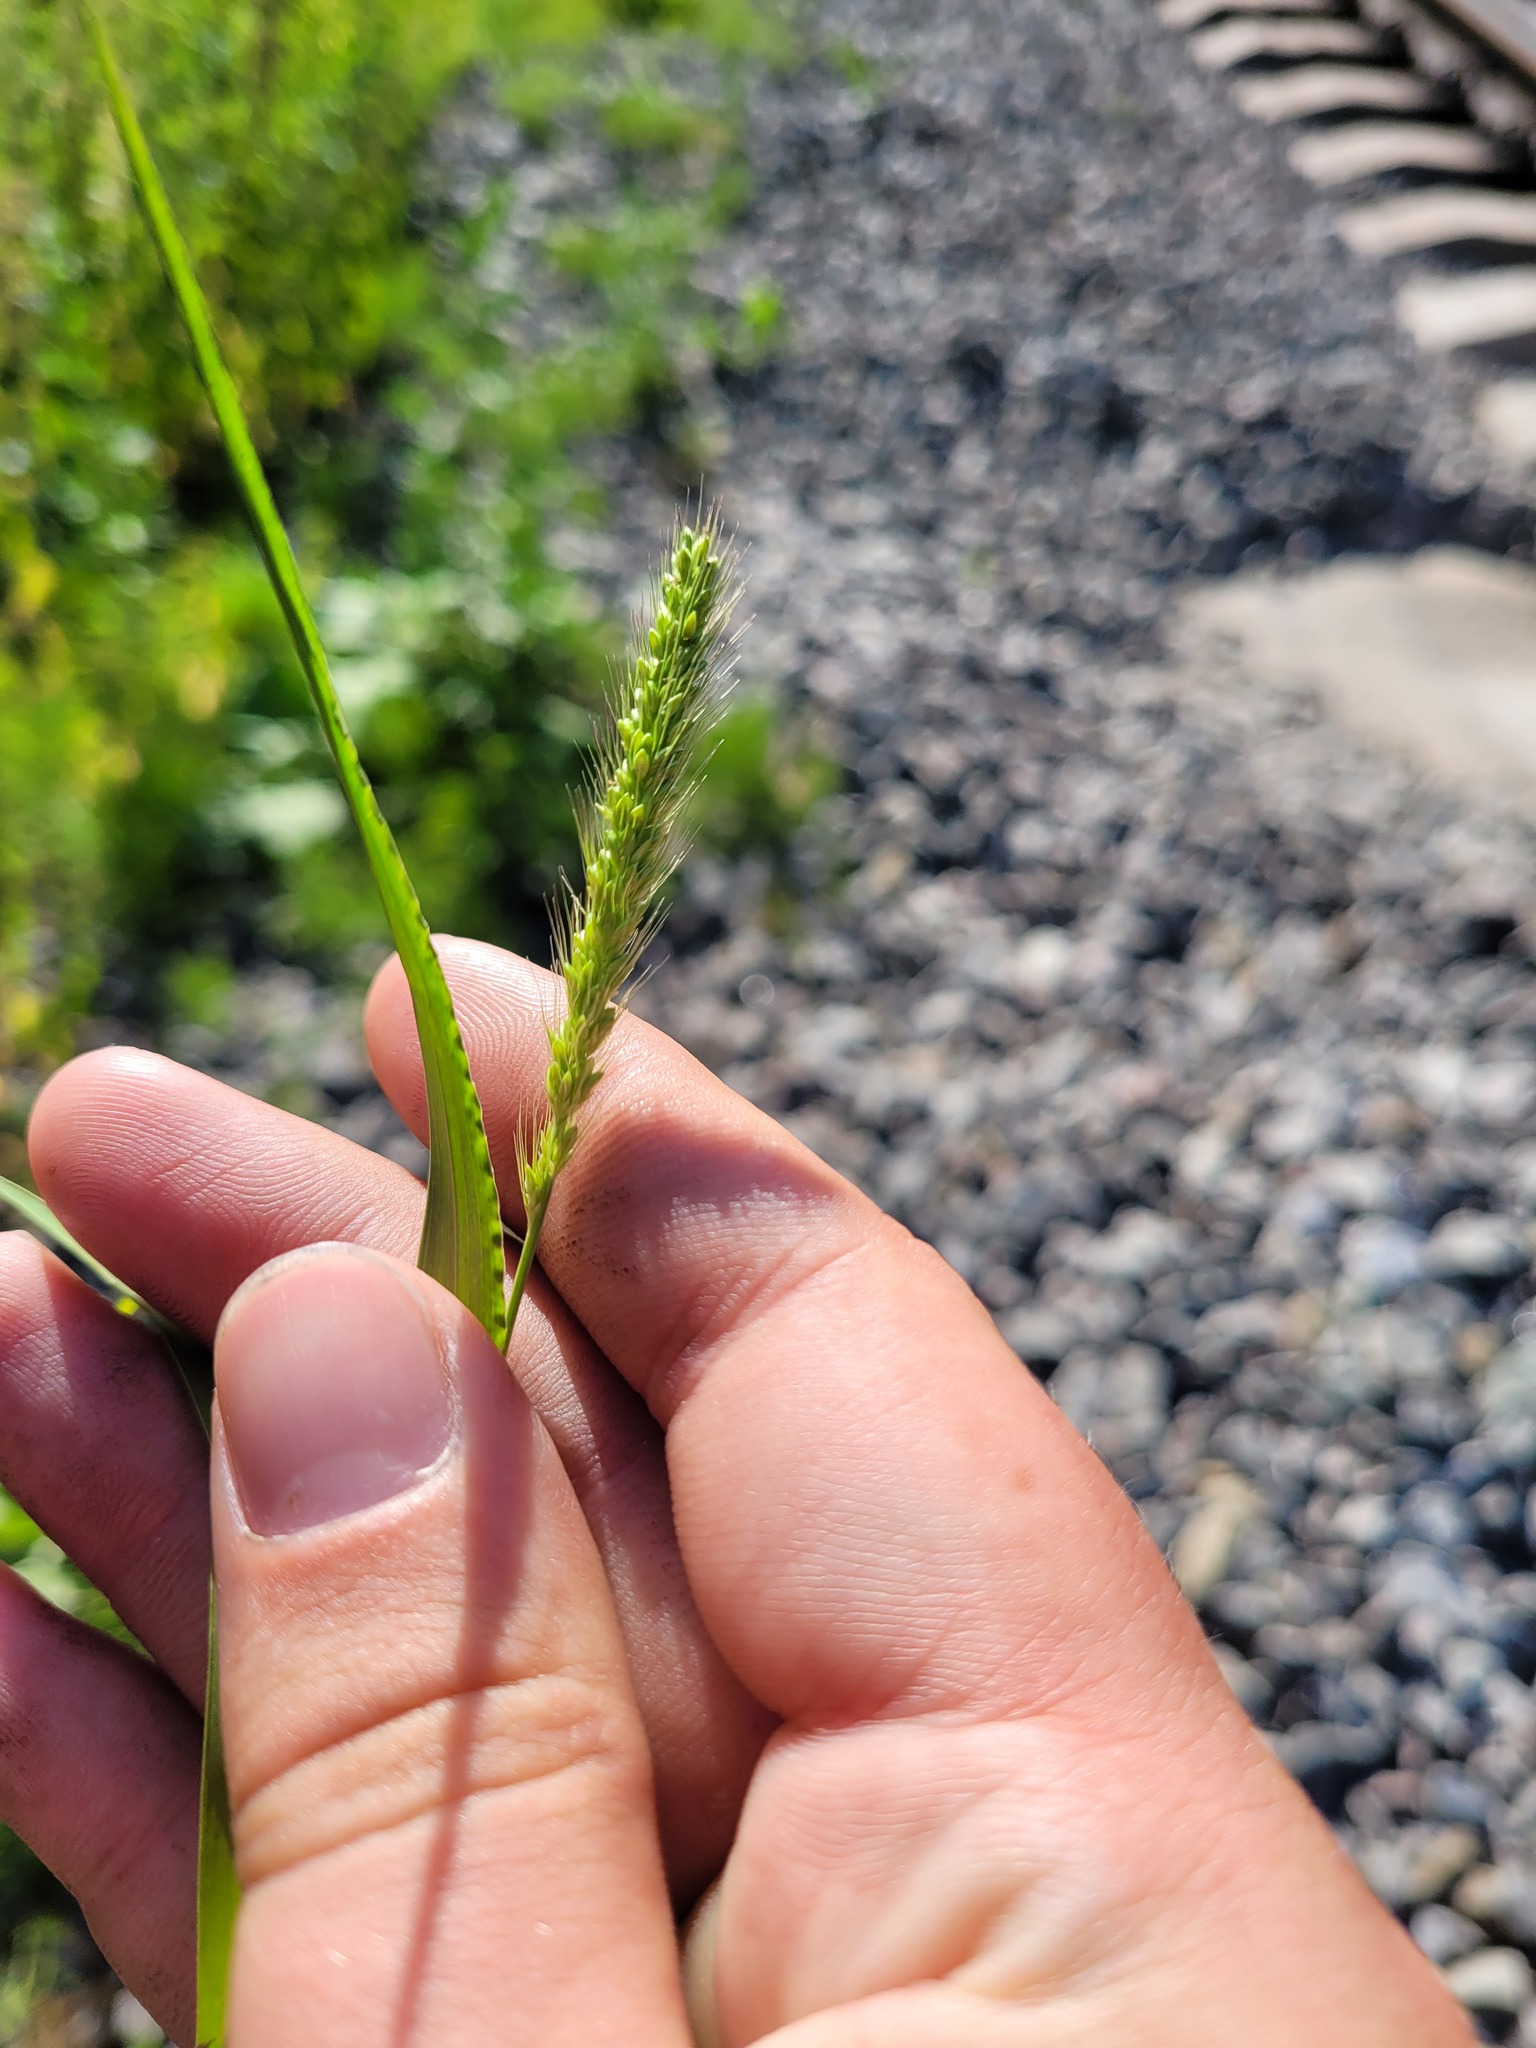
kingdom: Plantae
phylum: Tracheophyta
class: Liliopsida
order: Poales
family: Poaceae
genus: Setaria
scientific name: Setaria viridis
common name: Green bristlegrass
